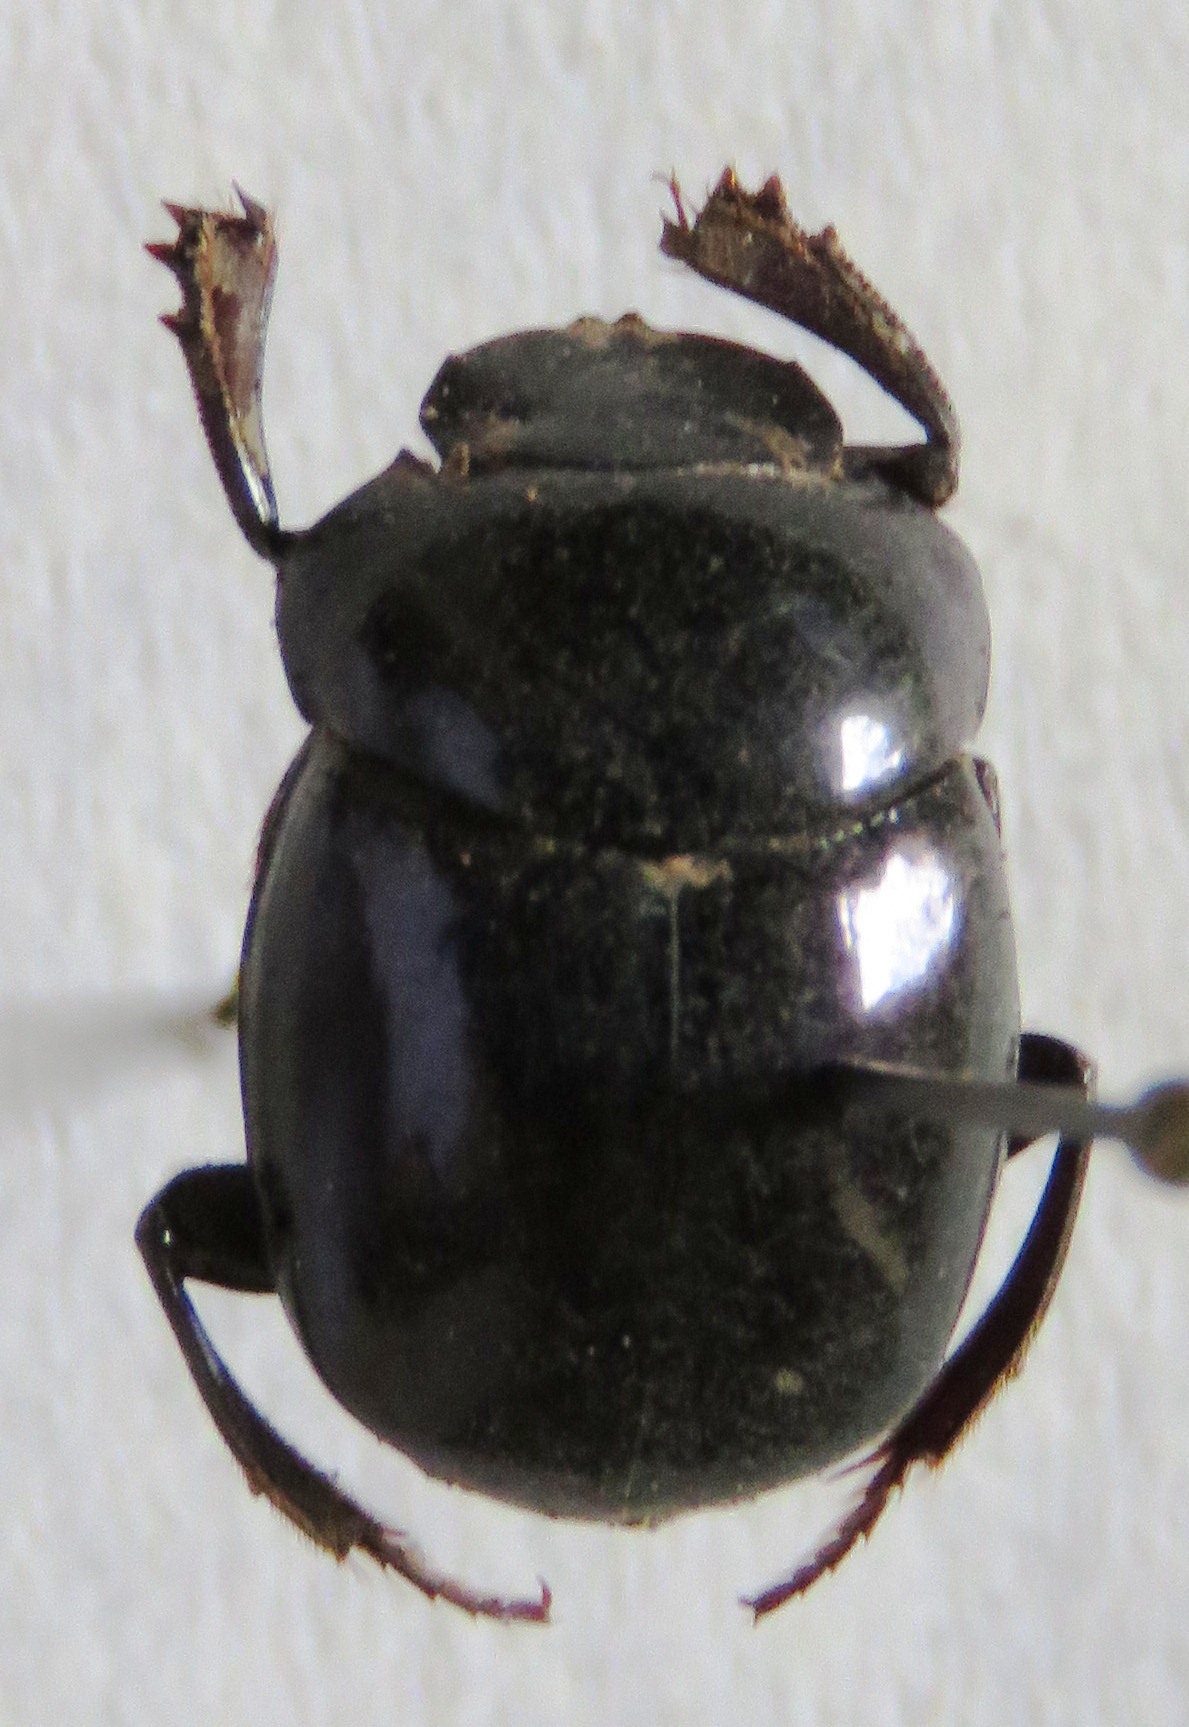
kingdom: Animalia
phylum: Arthropoda
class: Insecta
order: Coleoptera
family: Scarabaeidae
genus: Sylvicanthon
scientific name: Sylvicanthon aequinoctialis
